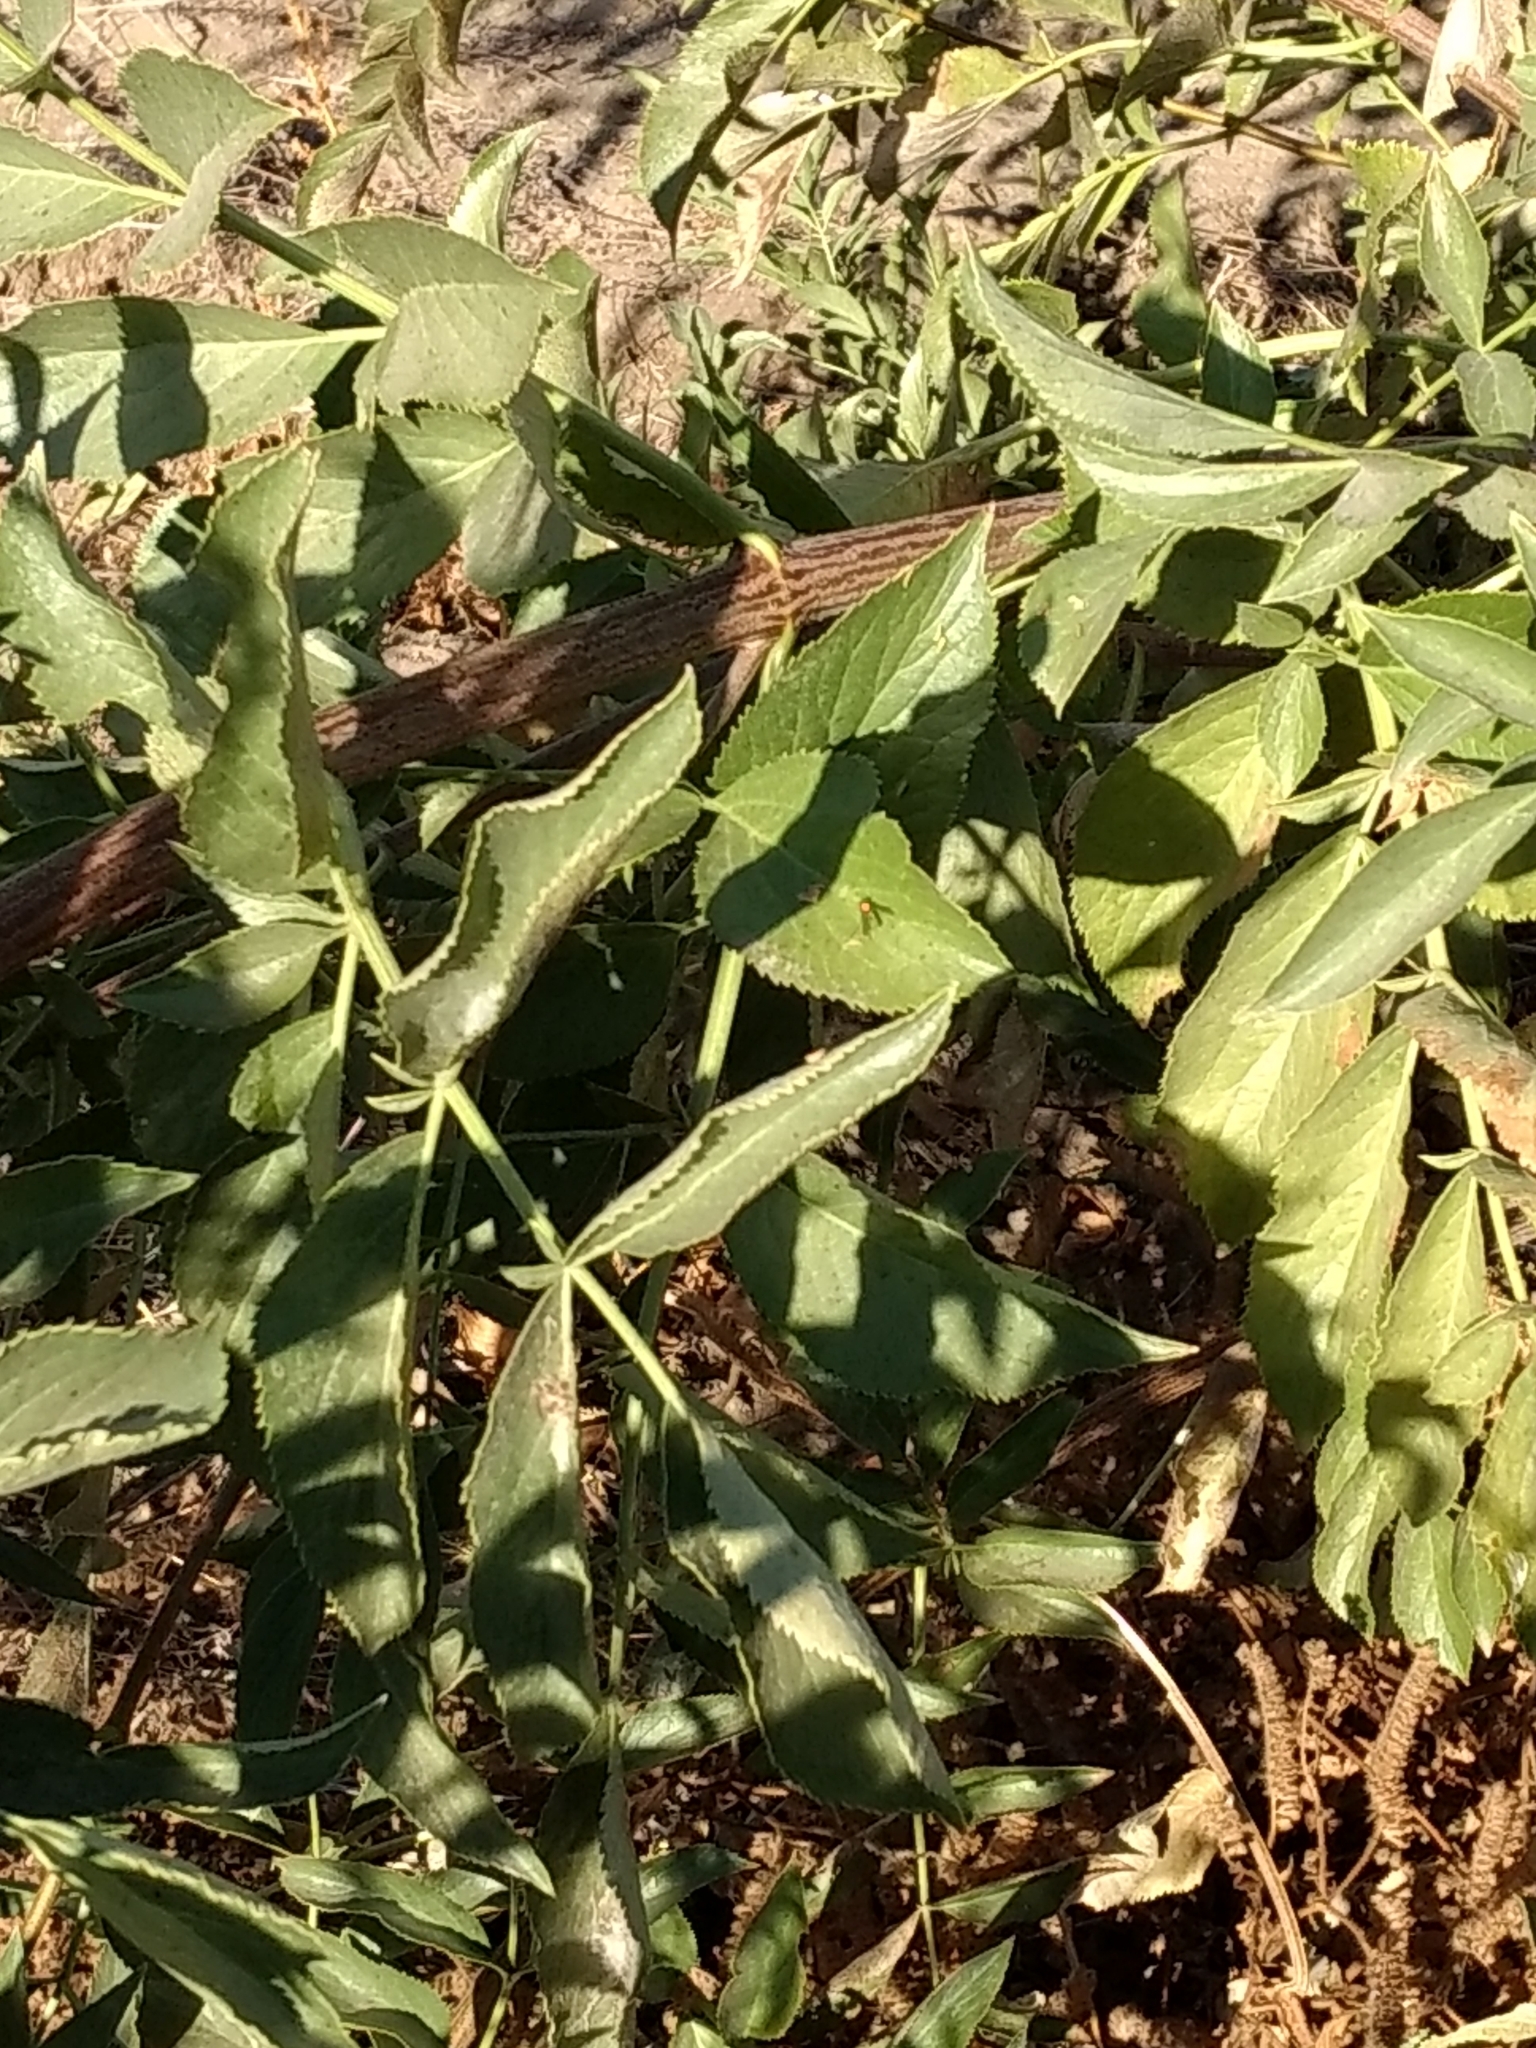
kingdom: Plantae
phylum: Tracheophyta
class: Magnoliopsida
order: Dipsacales
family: Viburnaceae
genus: Sambucus
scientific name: Sambucus cerulea
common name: Blue elder
